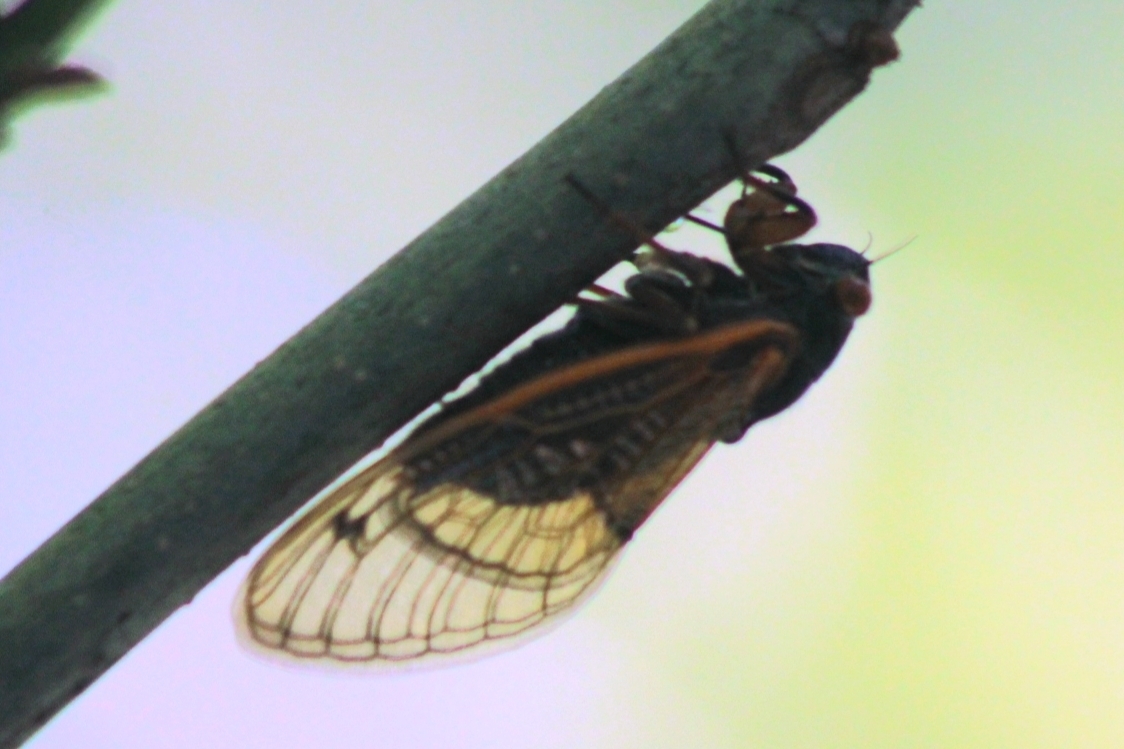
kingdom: Animalia
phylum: Arthropoda
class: Insecta
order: Hemiptera
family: Cicadidae
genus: Magicicada
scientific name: Magicicada
